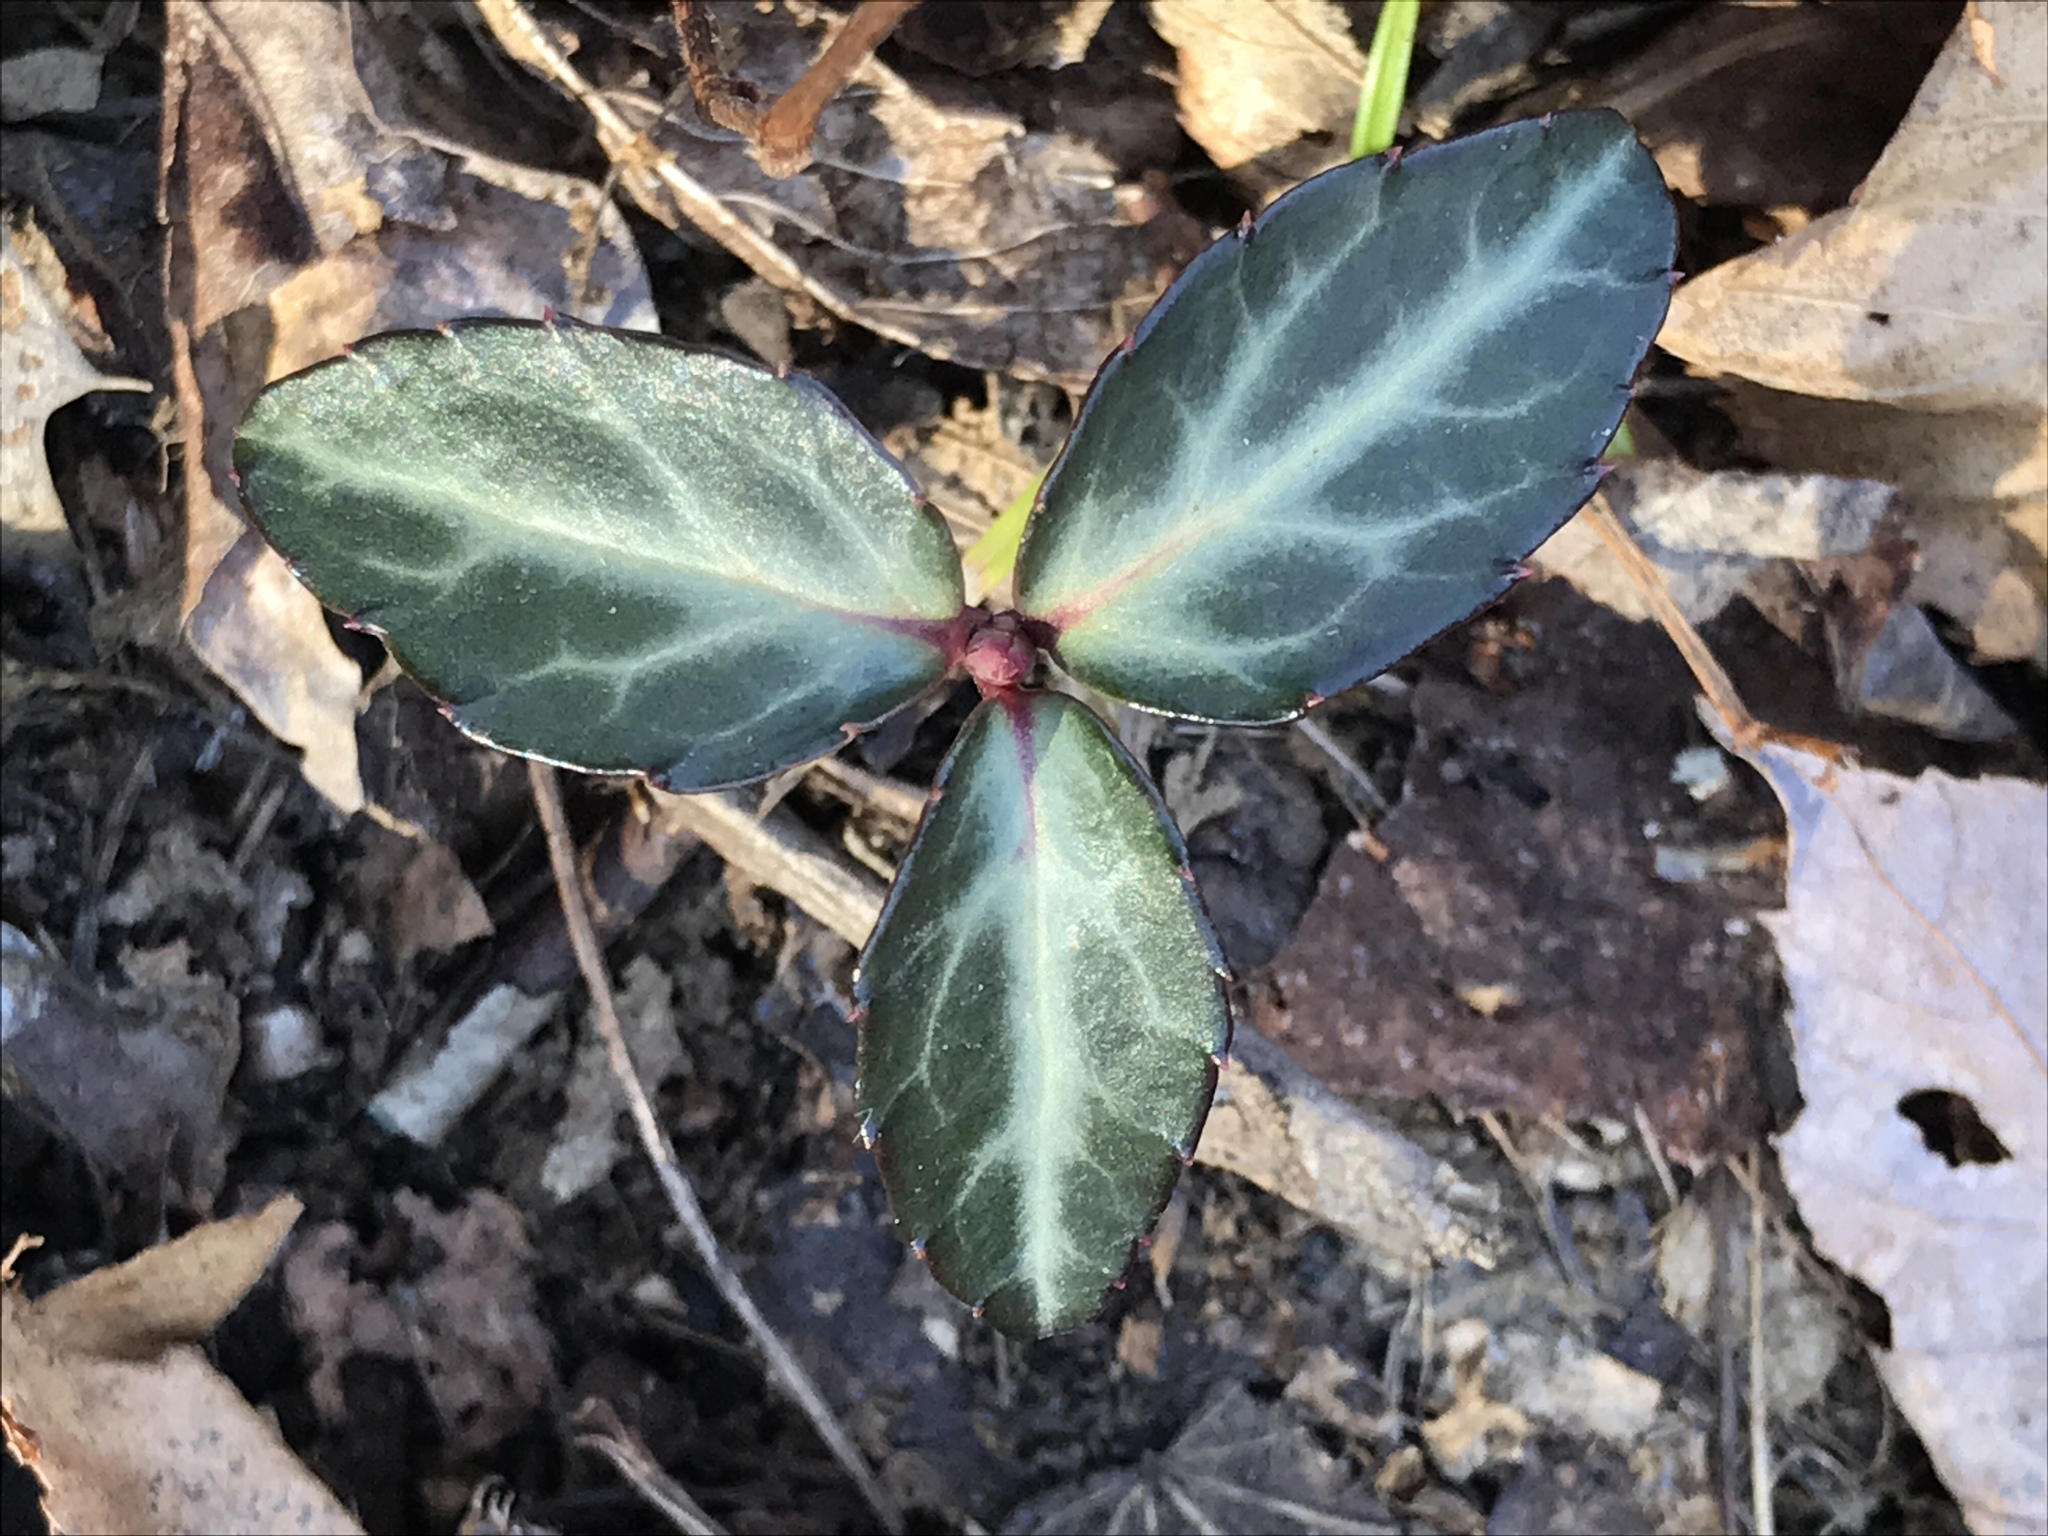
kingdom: Plantae
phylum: Tracheophyta
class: Magnoliopsida
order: Ericales
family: Ericaceae
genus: Chimaphila
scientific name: Chimaphila maculata
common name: Spotted pipsissewa
